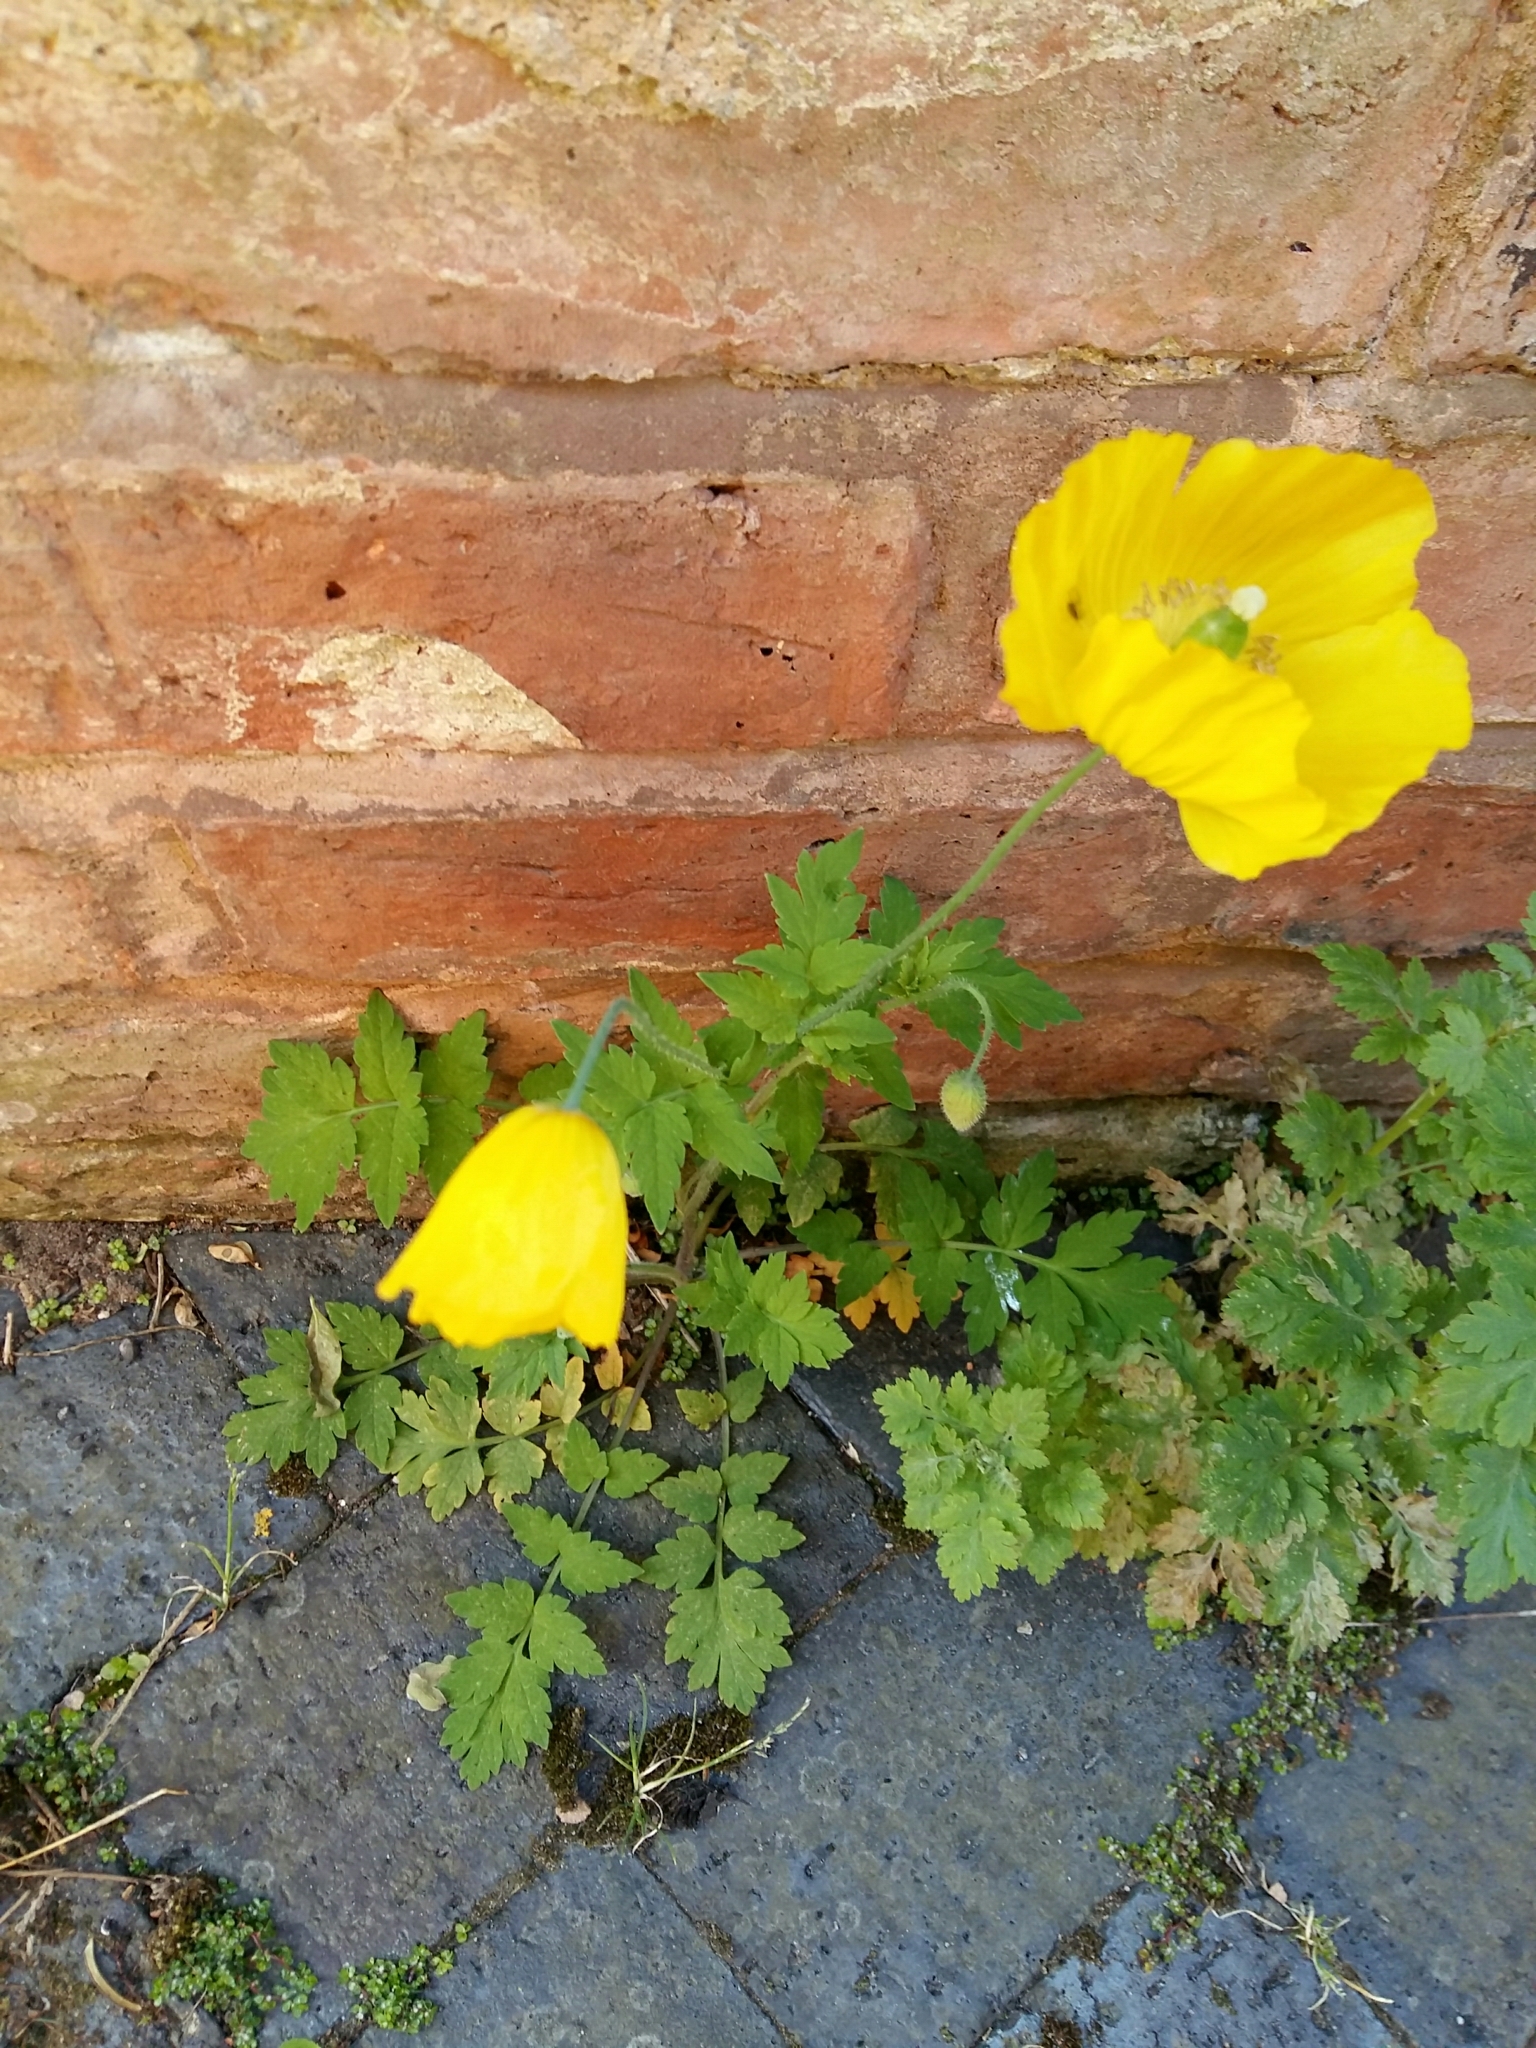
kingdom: Plantae
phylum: Tracheophyta
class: Magnoliopsida
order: Ranunculales
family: Papaveraceae
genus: Papaver
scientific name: Papaver cambricum
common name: Poppy
